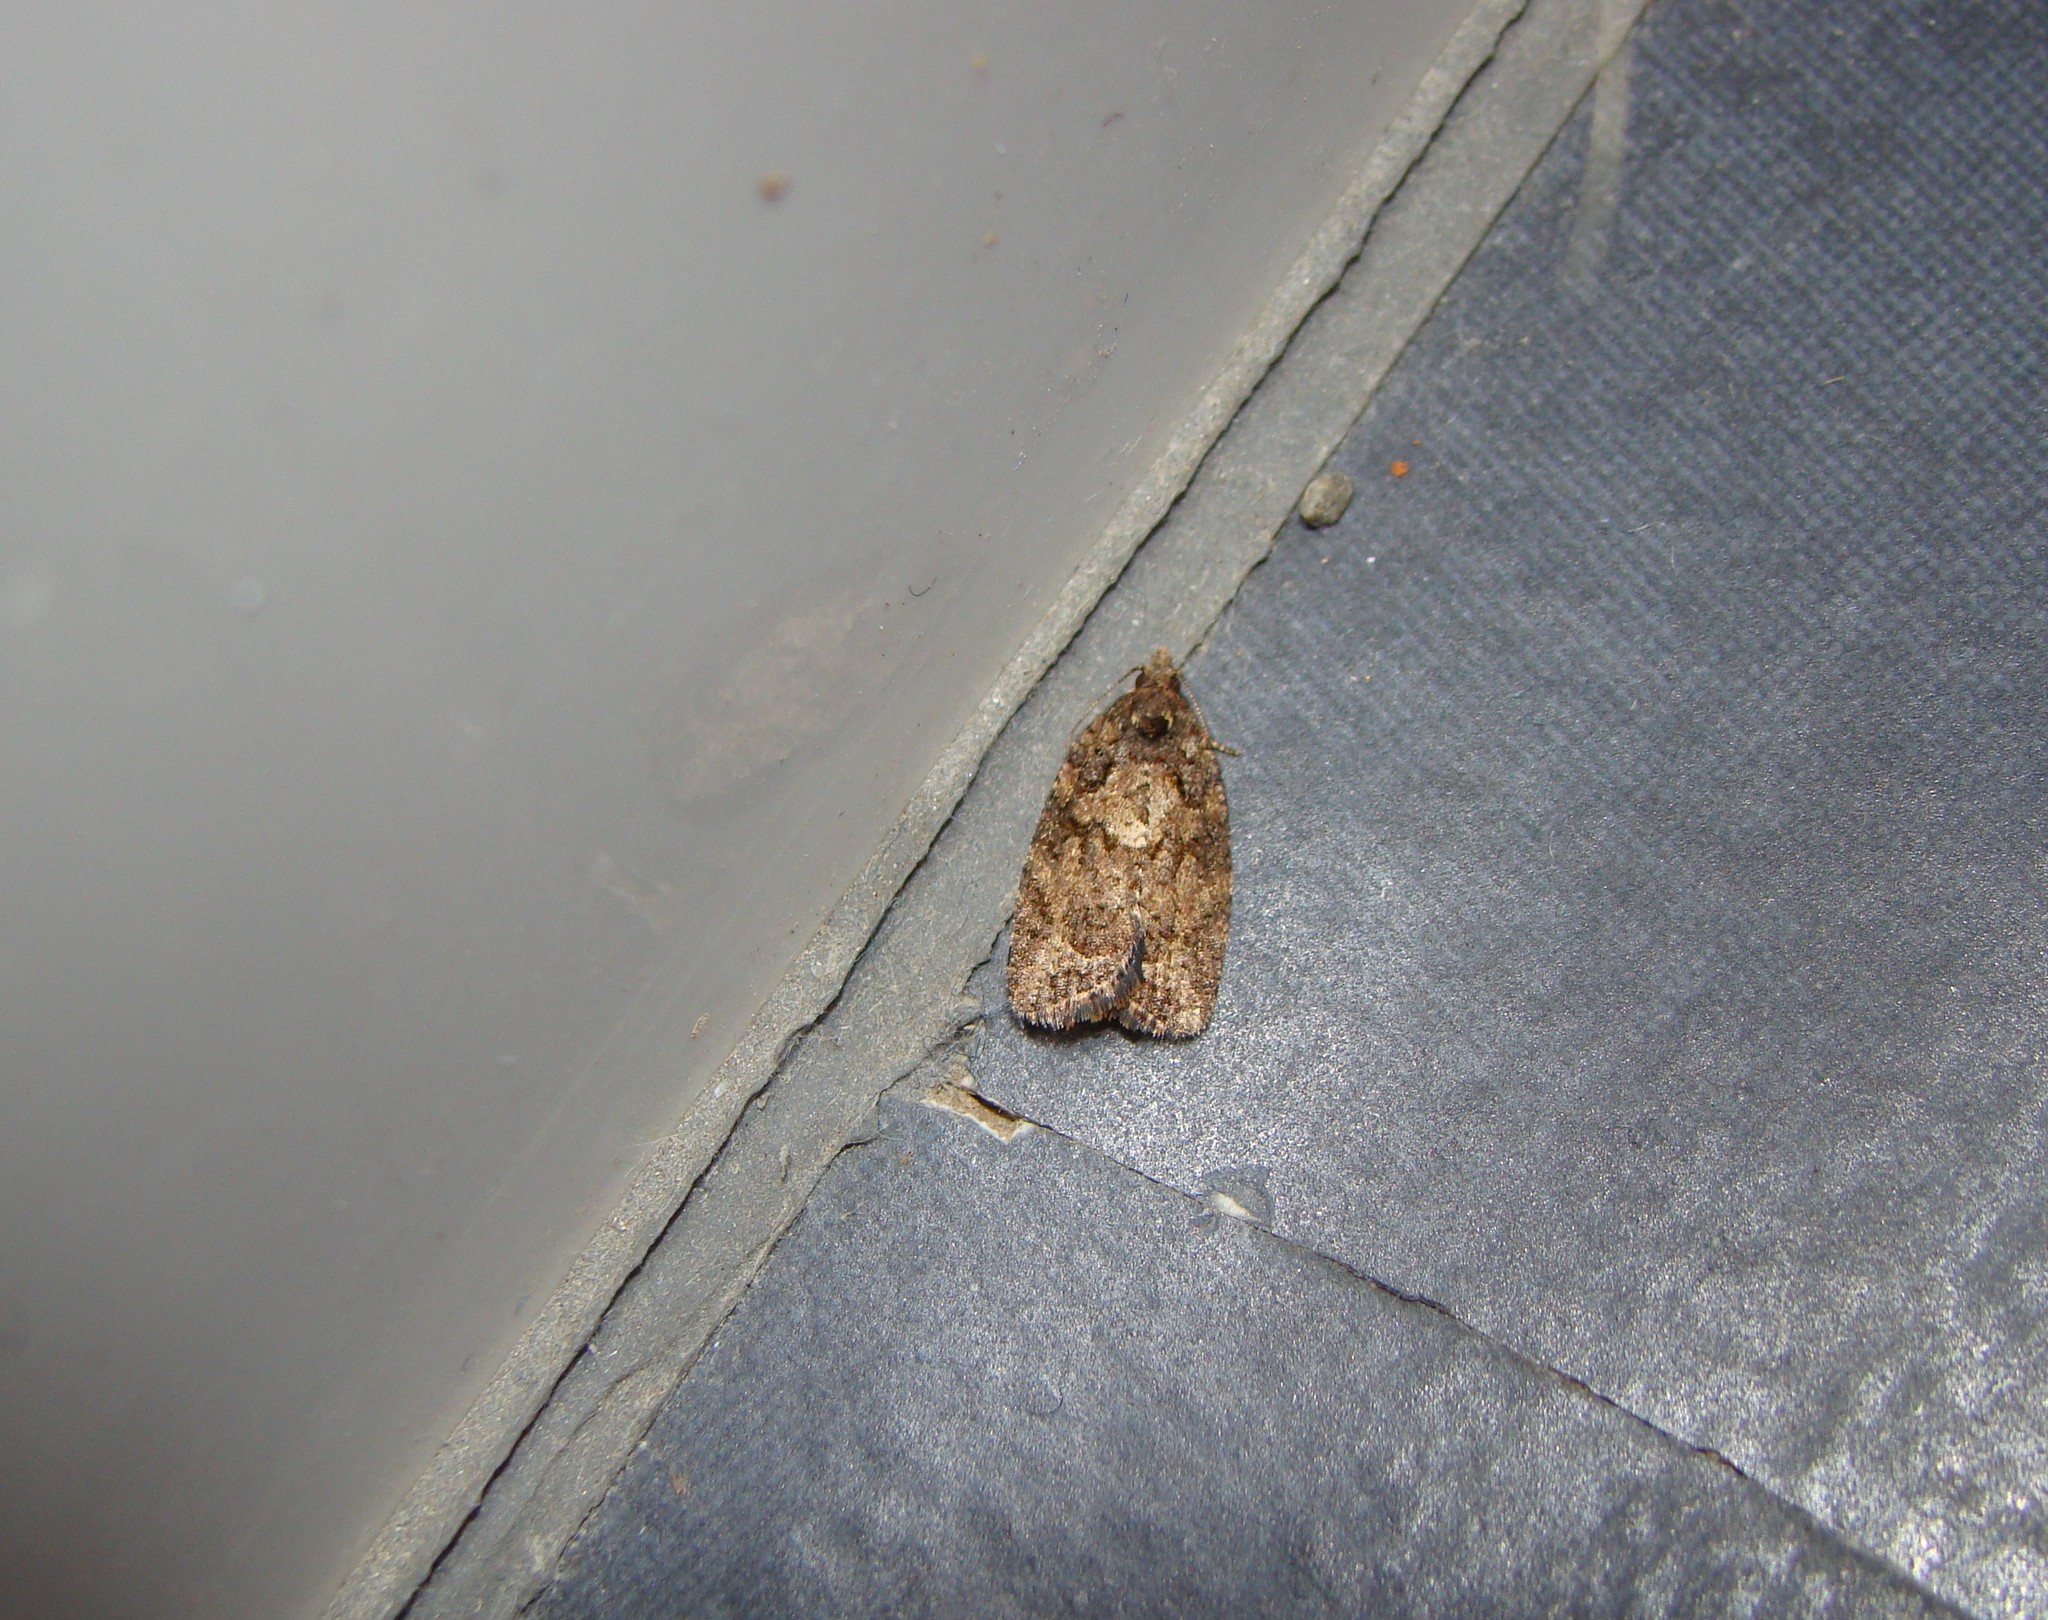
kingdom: Animalia
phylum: Arthropoda
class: Insecta
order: Lepidoptera
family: Tortricidae
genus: Capua
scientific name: Capua intractana
